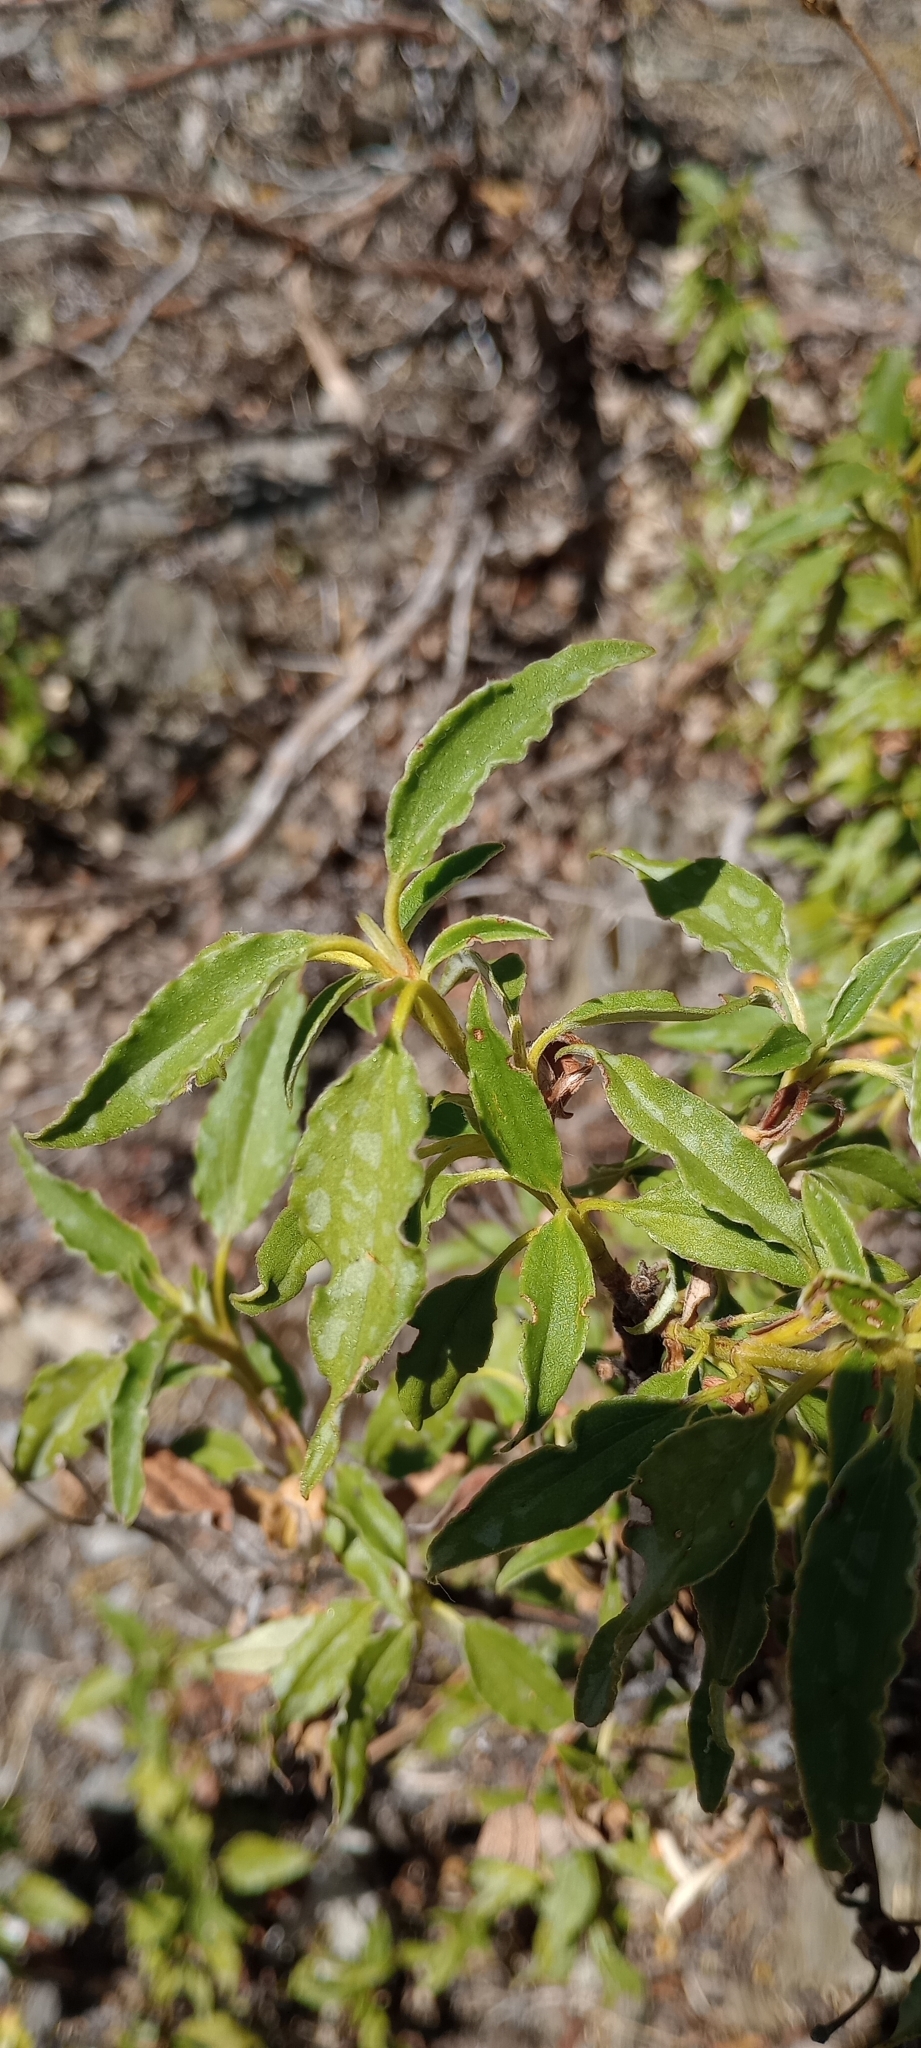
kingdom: Plantae
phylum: Tracheophyta
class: Magnoliopsida
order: Malvales
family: Cistaceae
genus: Cistus
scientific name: Cistus laurifolius
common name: Laurel-leaved cistus
